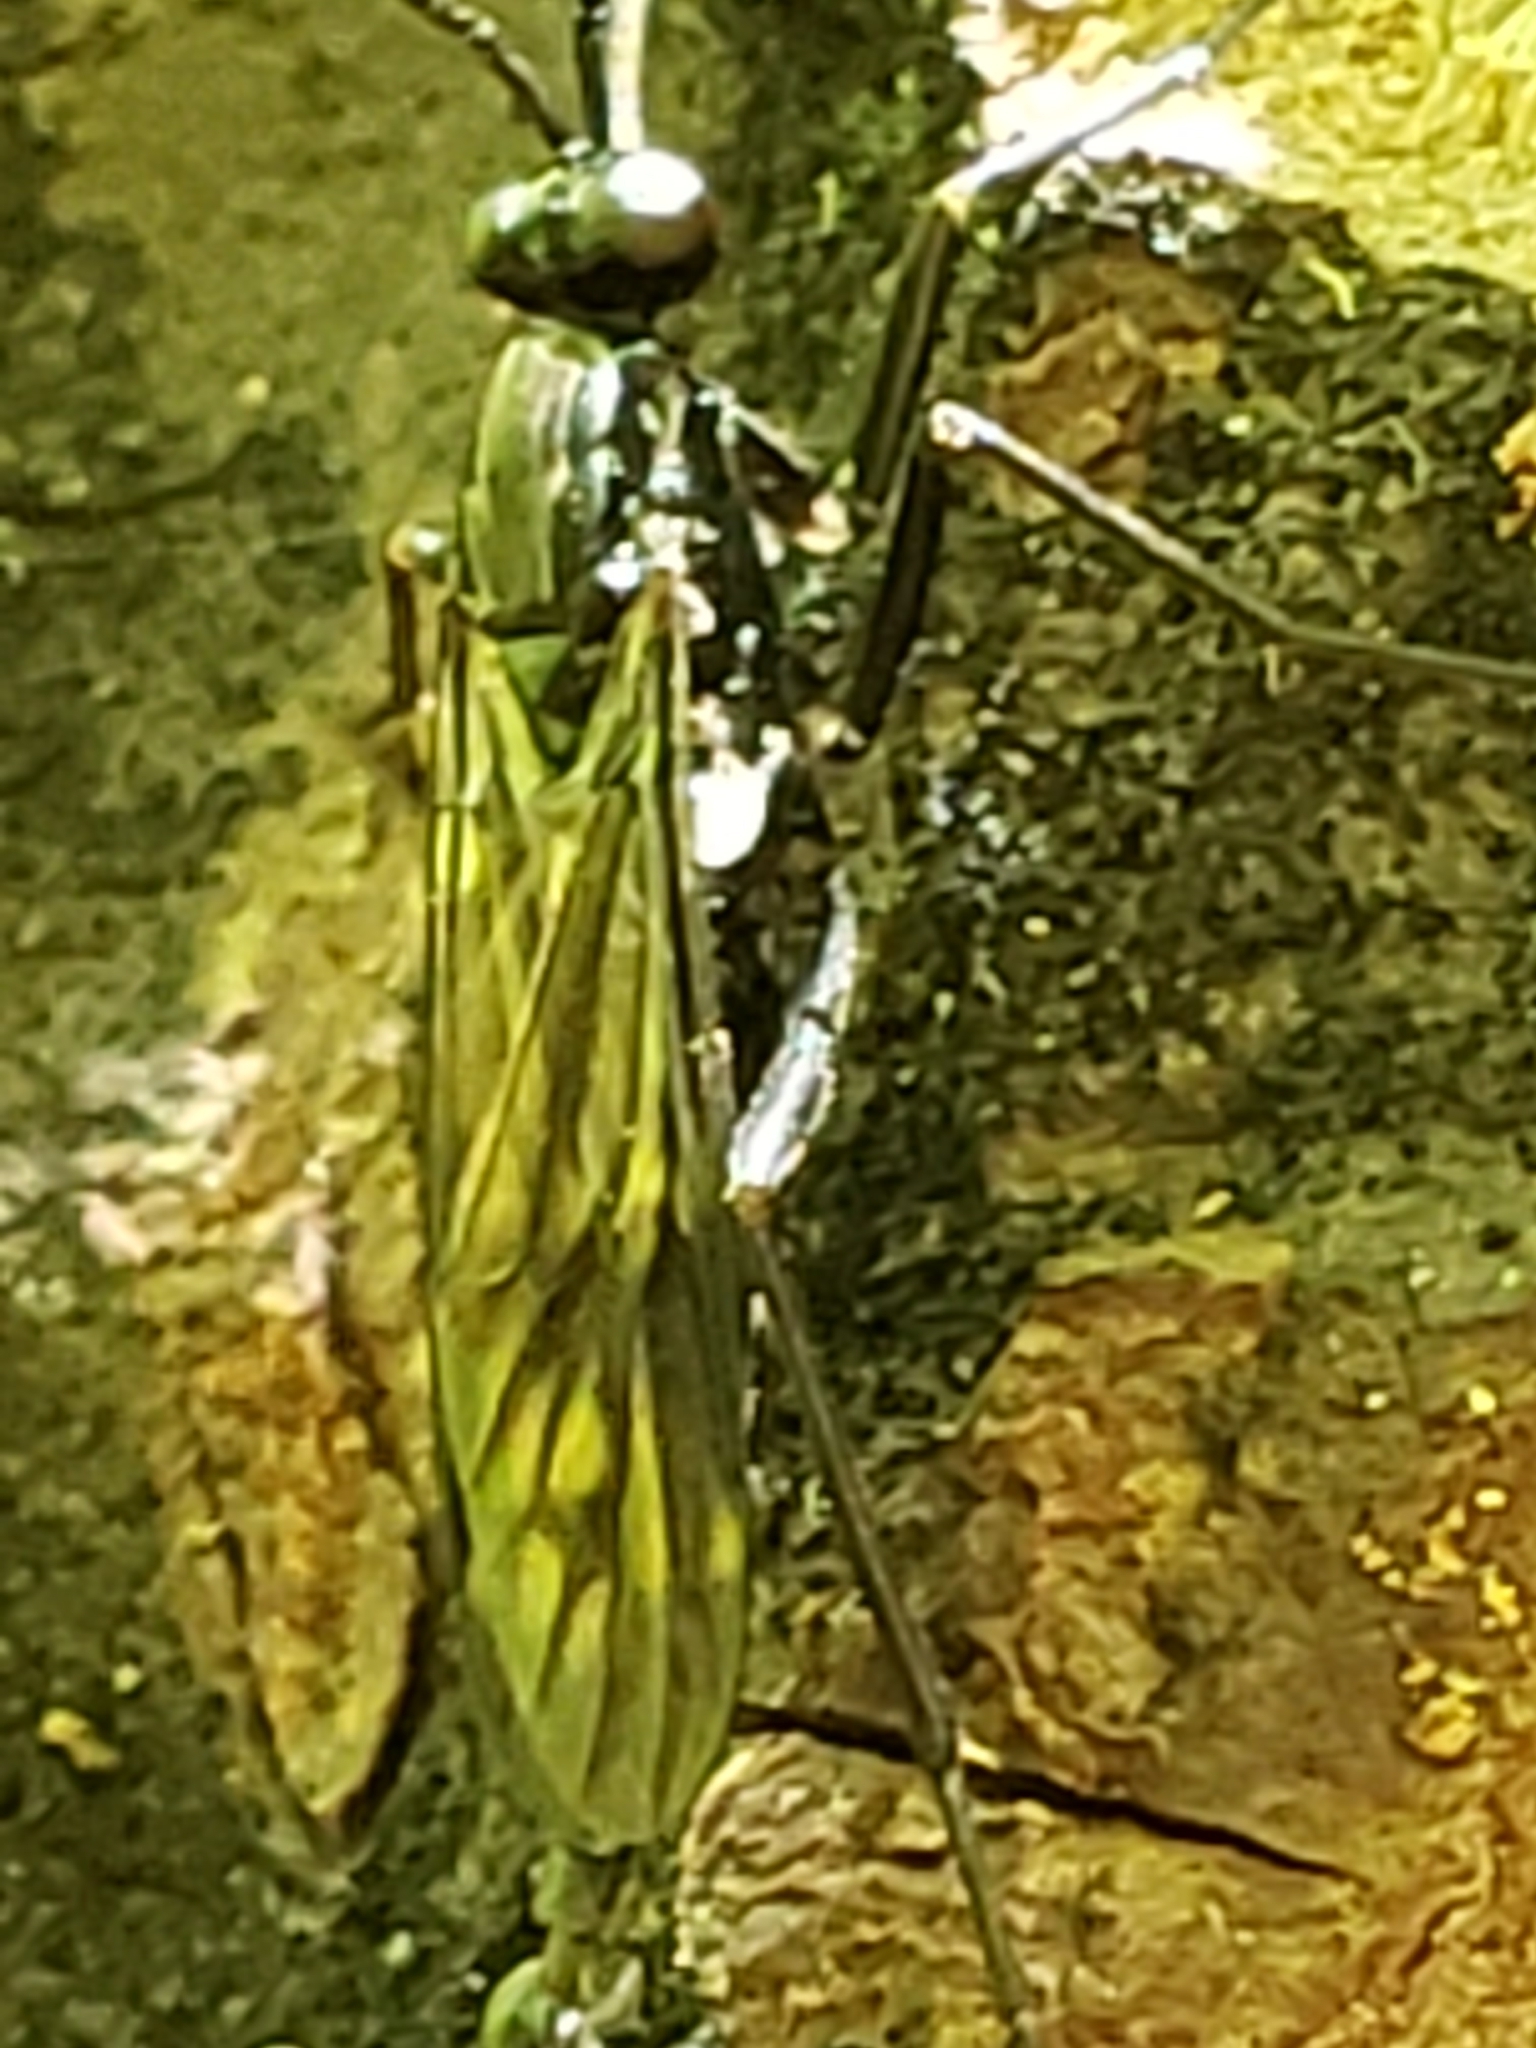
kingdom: Animalia
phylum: Arthropoda
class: Insecta
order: Diptera
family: Xylophagidae
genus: Xylophagus
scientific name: Xylophagus reflectens
